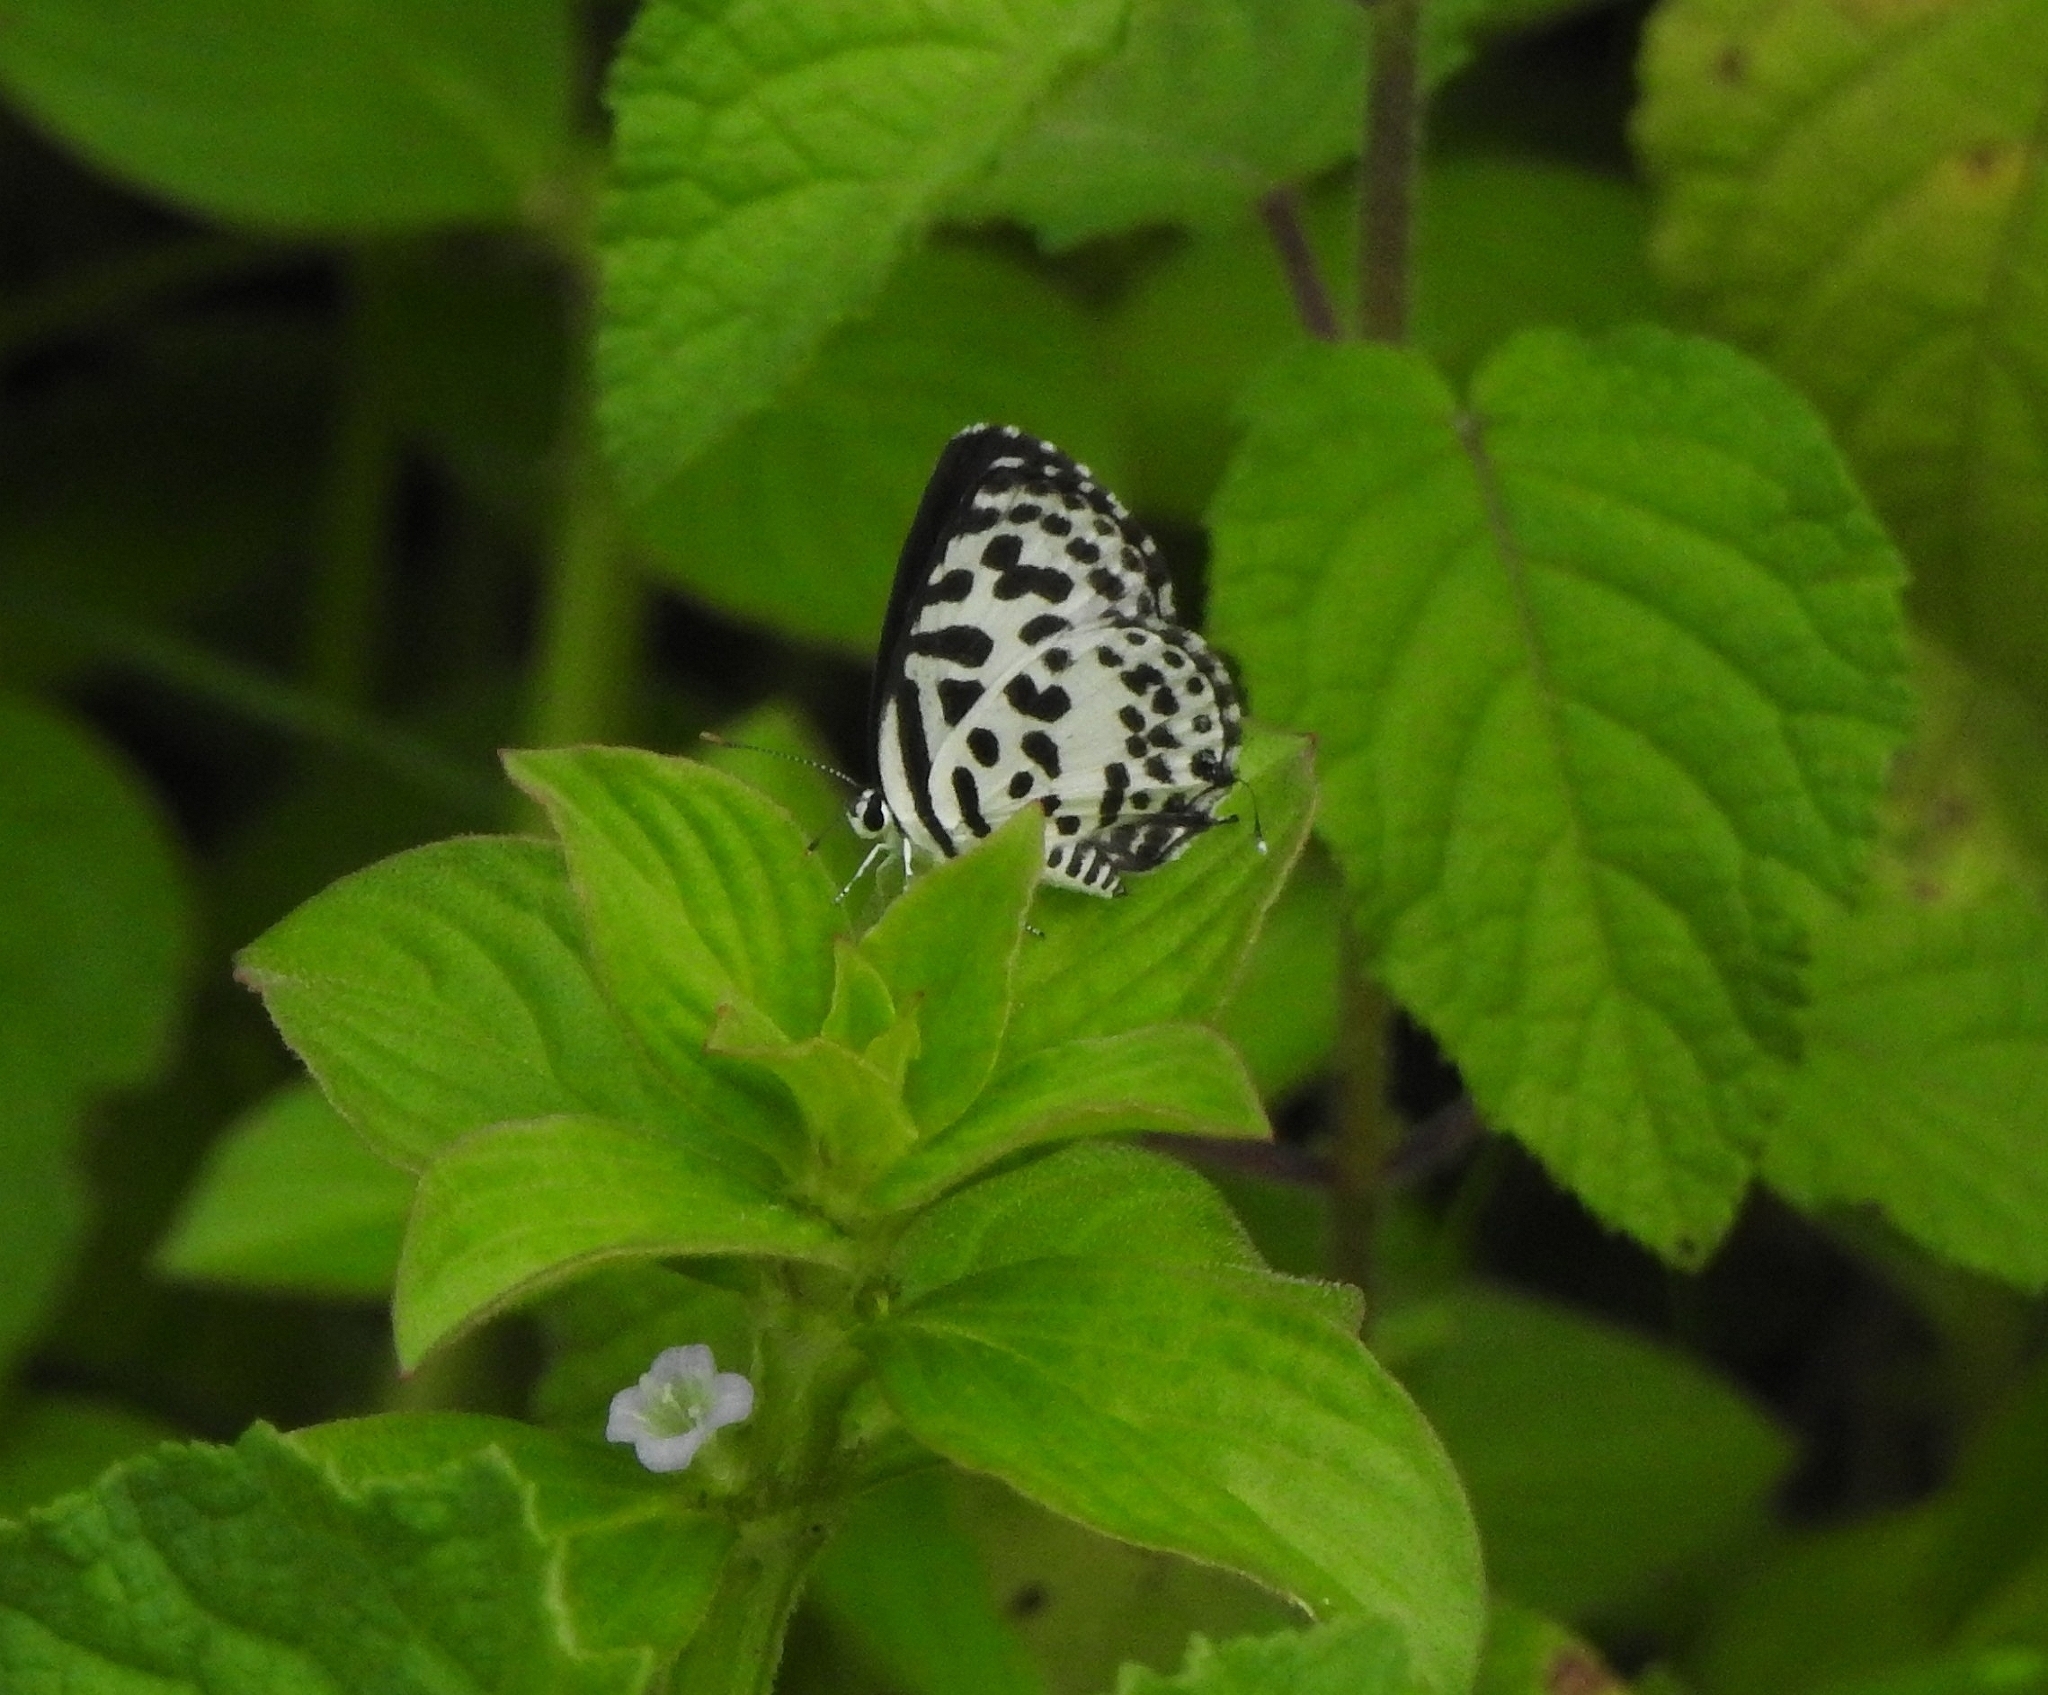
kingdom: Animalia
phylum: Arthropoda
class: Insecta
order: Lepidoptera
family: Lycaenidae
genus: Castalius
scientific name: Castalius rosimon
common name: Common pierrot
